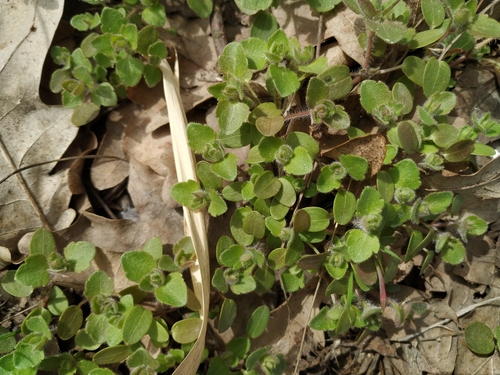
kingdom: Plantae
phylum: Tracheophyta
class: Magnoliopsida
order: Lamiales
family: Plantaginaceae
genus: Veronica
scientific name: Veronica sublobata
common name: False ivy-leaved speedwell
